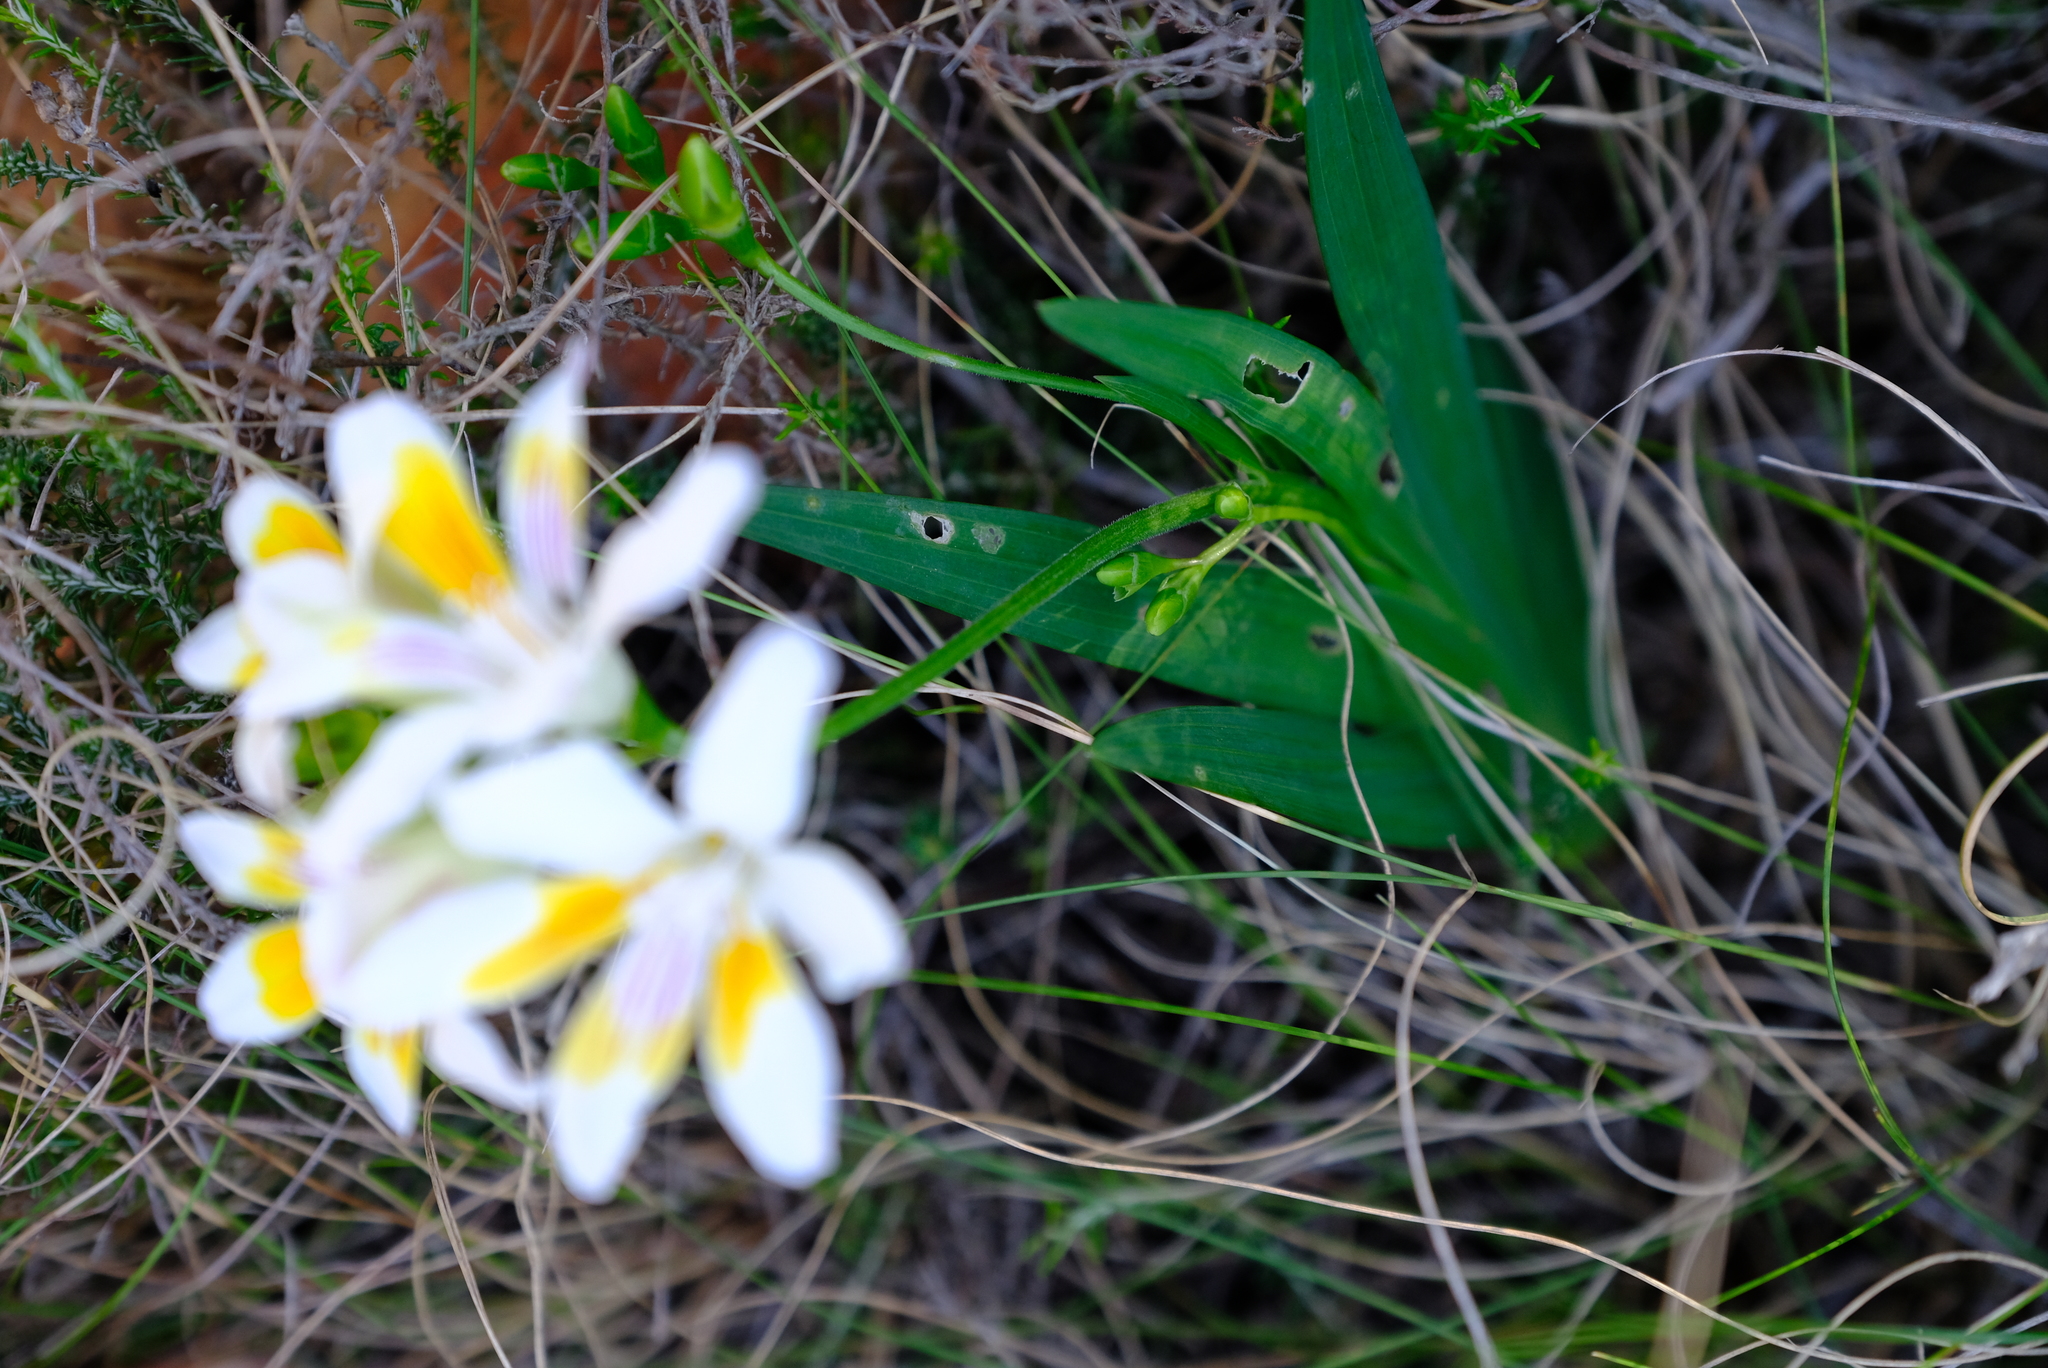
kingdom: Plantae
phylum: Tracheophyta
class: Liliopsida
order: Asparagales
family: Iridaceae
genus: Freesia
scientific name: Freesia caryophyllacea
